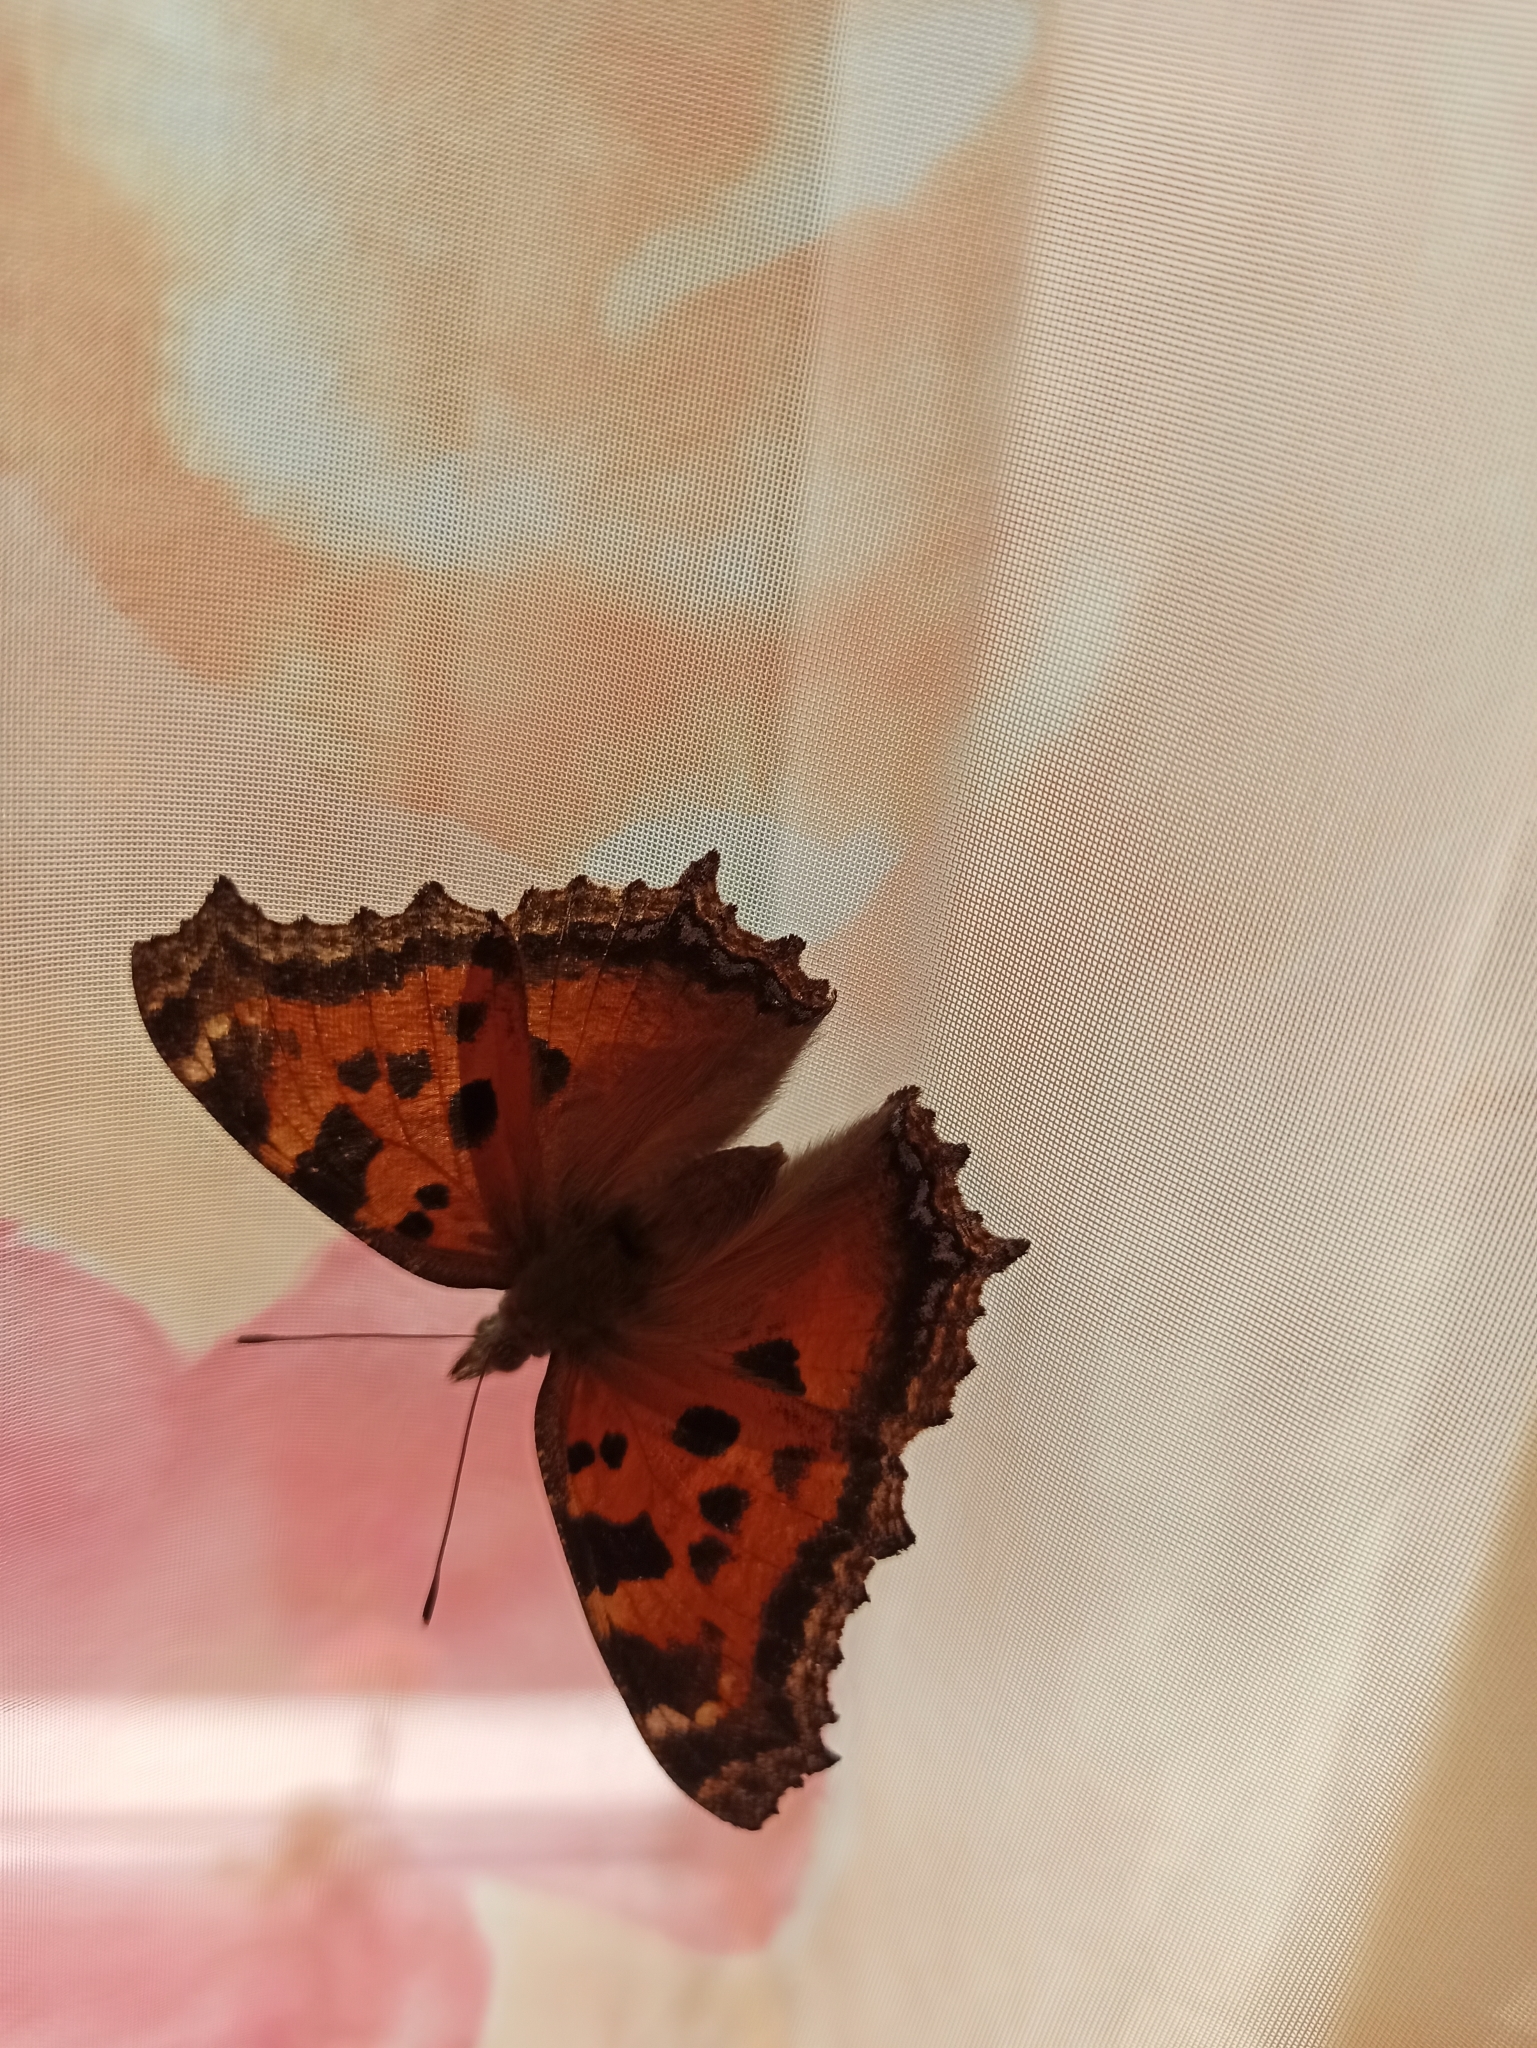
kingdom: Animalia
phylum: Arthropoda
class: Insecta
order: Lepidoptera
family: Nymphalidae
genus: Nymphalis
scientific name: Nymphalis xanthomelas
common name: Scarce tortoiseshell
